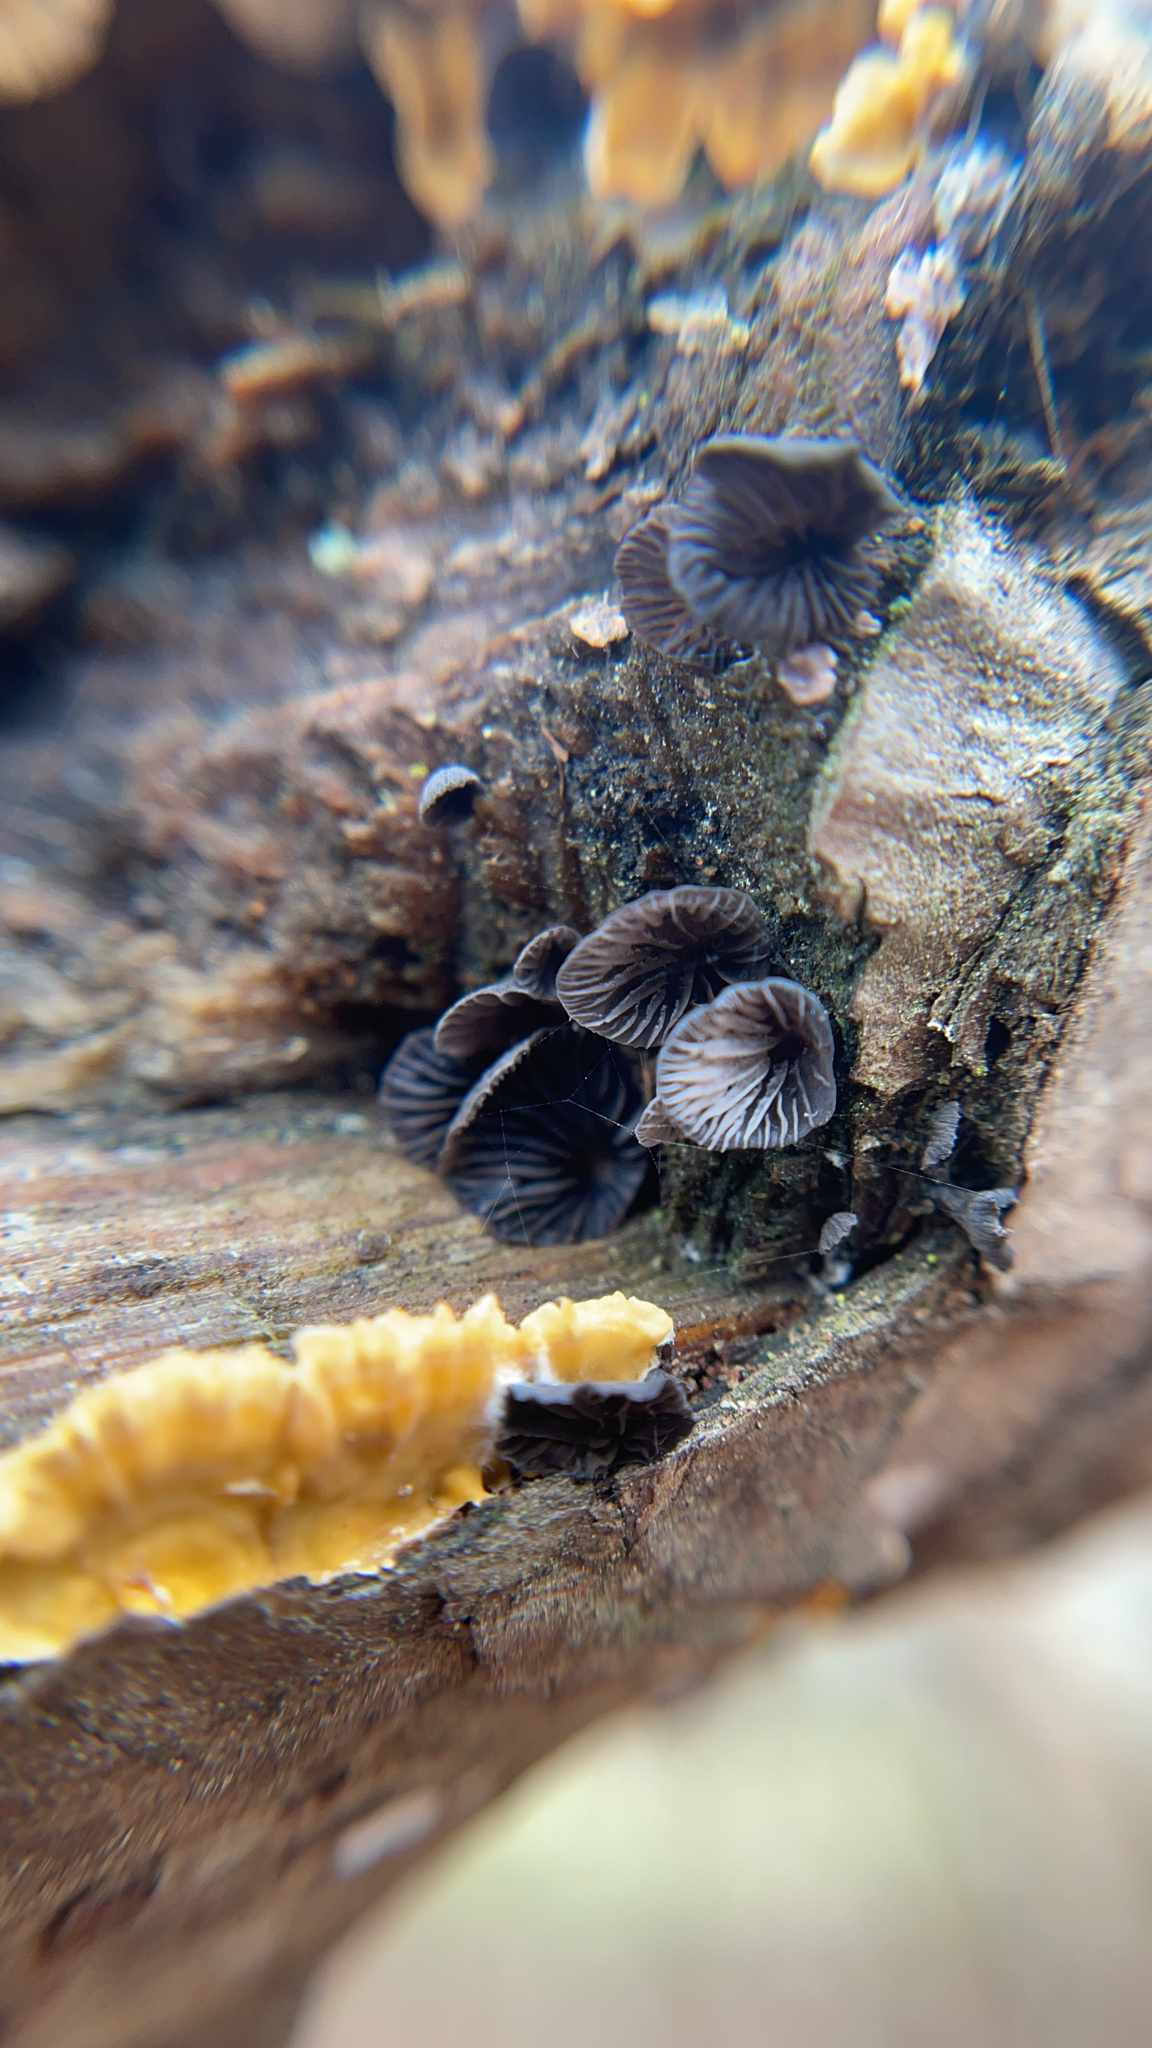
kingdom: Fungi
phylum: Basidiomycota
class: Agaricomycetes
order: Agaricales
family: Pleurotaceae
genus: Resupinatus
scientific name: Resupinatus applicatus
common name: Smoked oysterling
